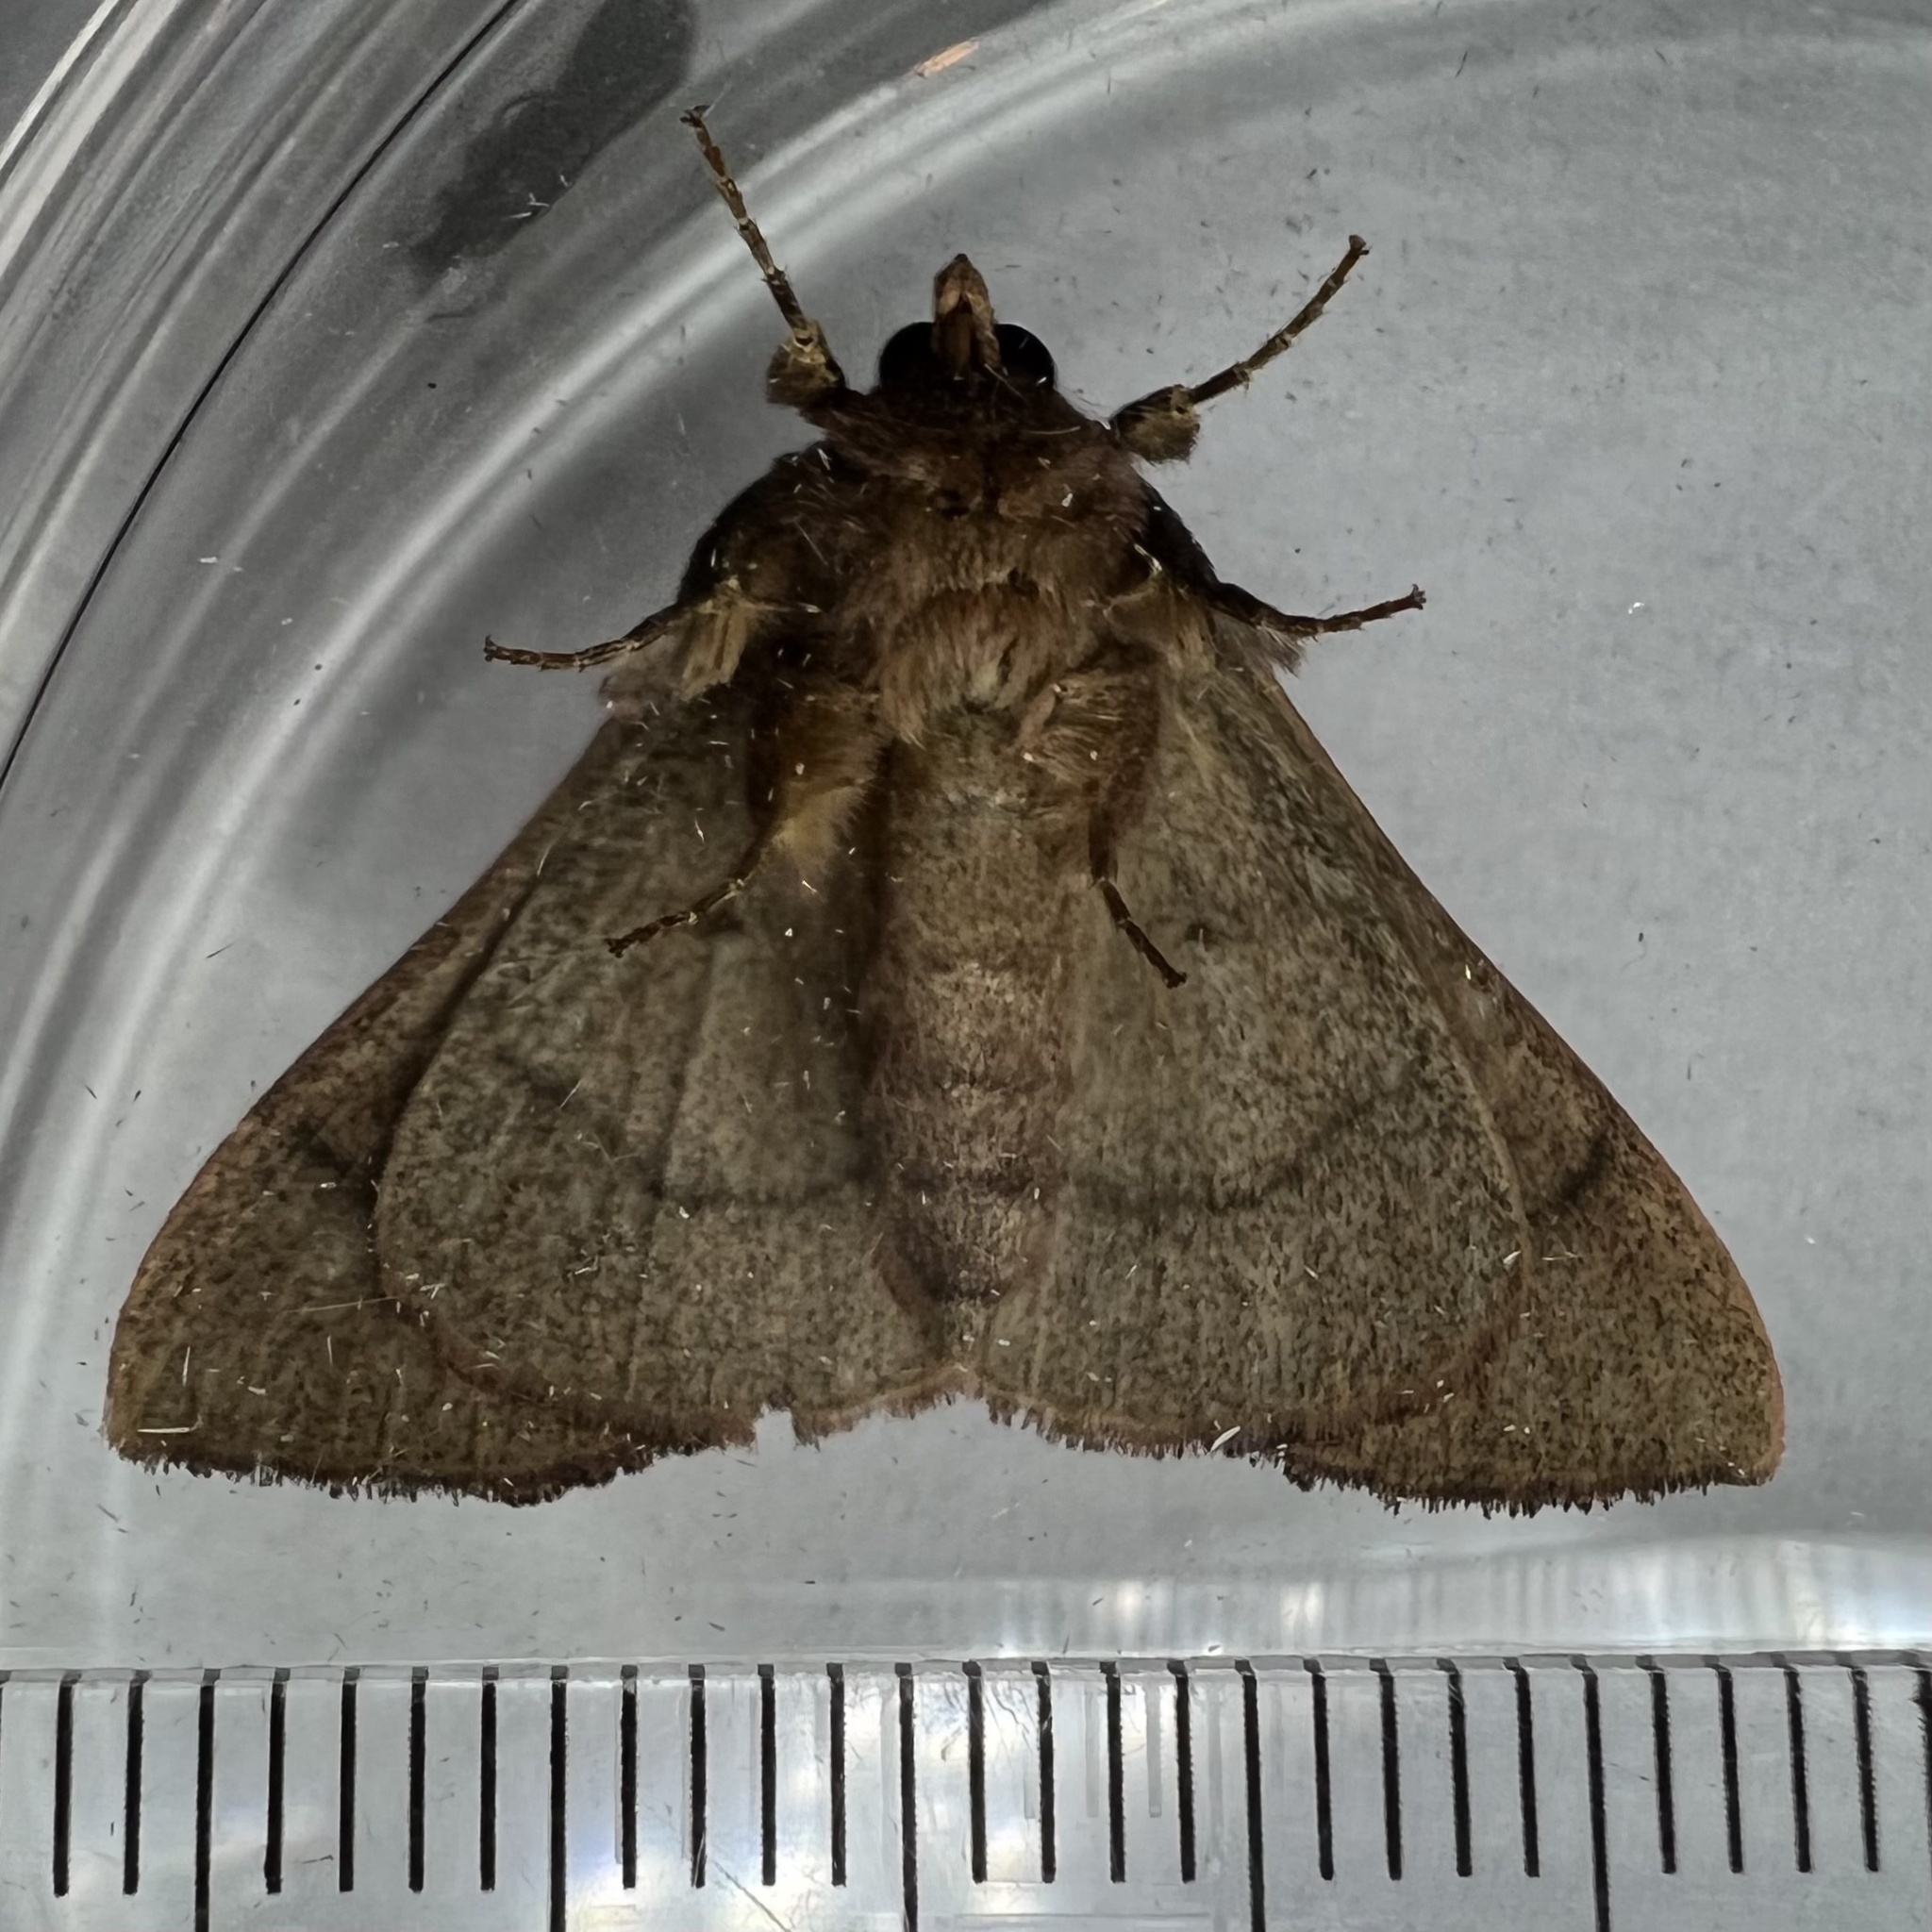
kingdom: Animalia
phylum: Arthropoda
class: Insecta
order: Lepidoptera
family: Erebidae
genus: Panopoda
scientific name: Panopoda carneicosta
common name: Brown panopoda moth
